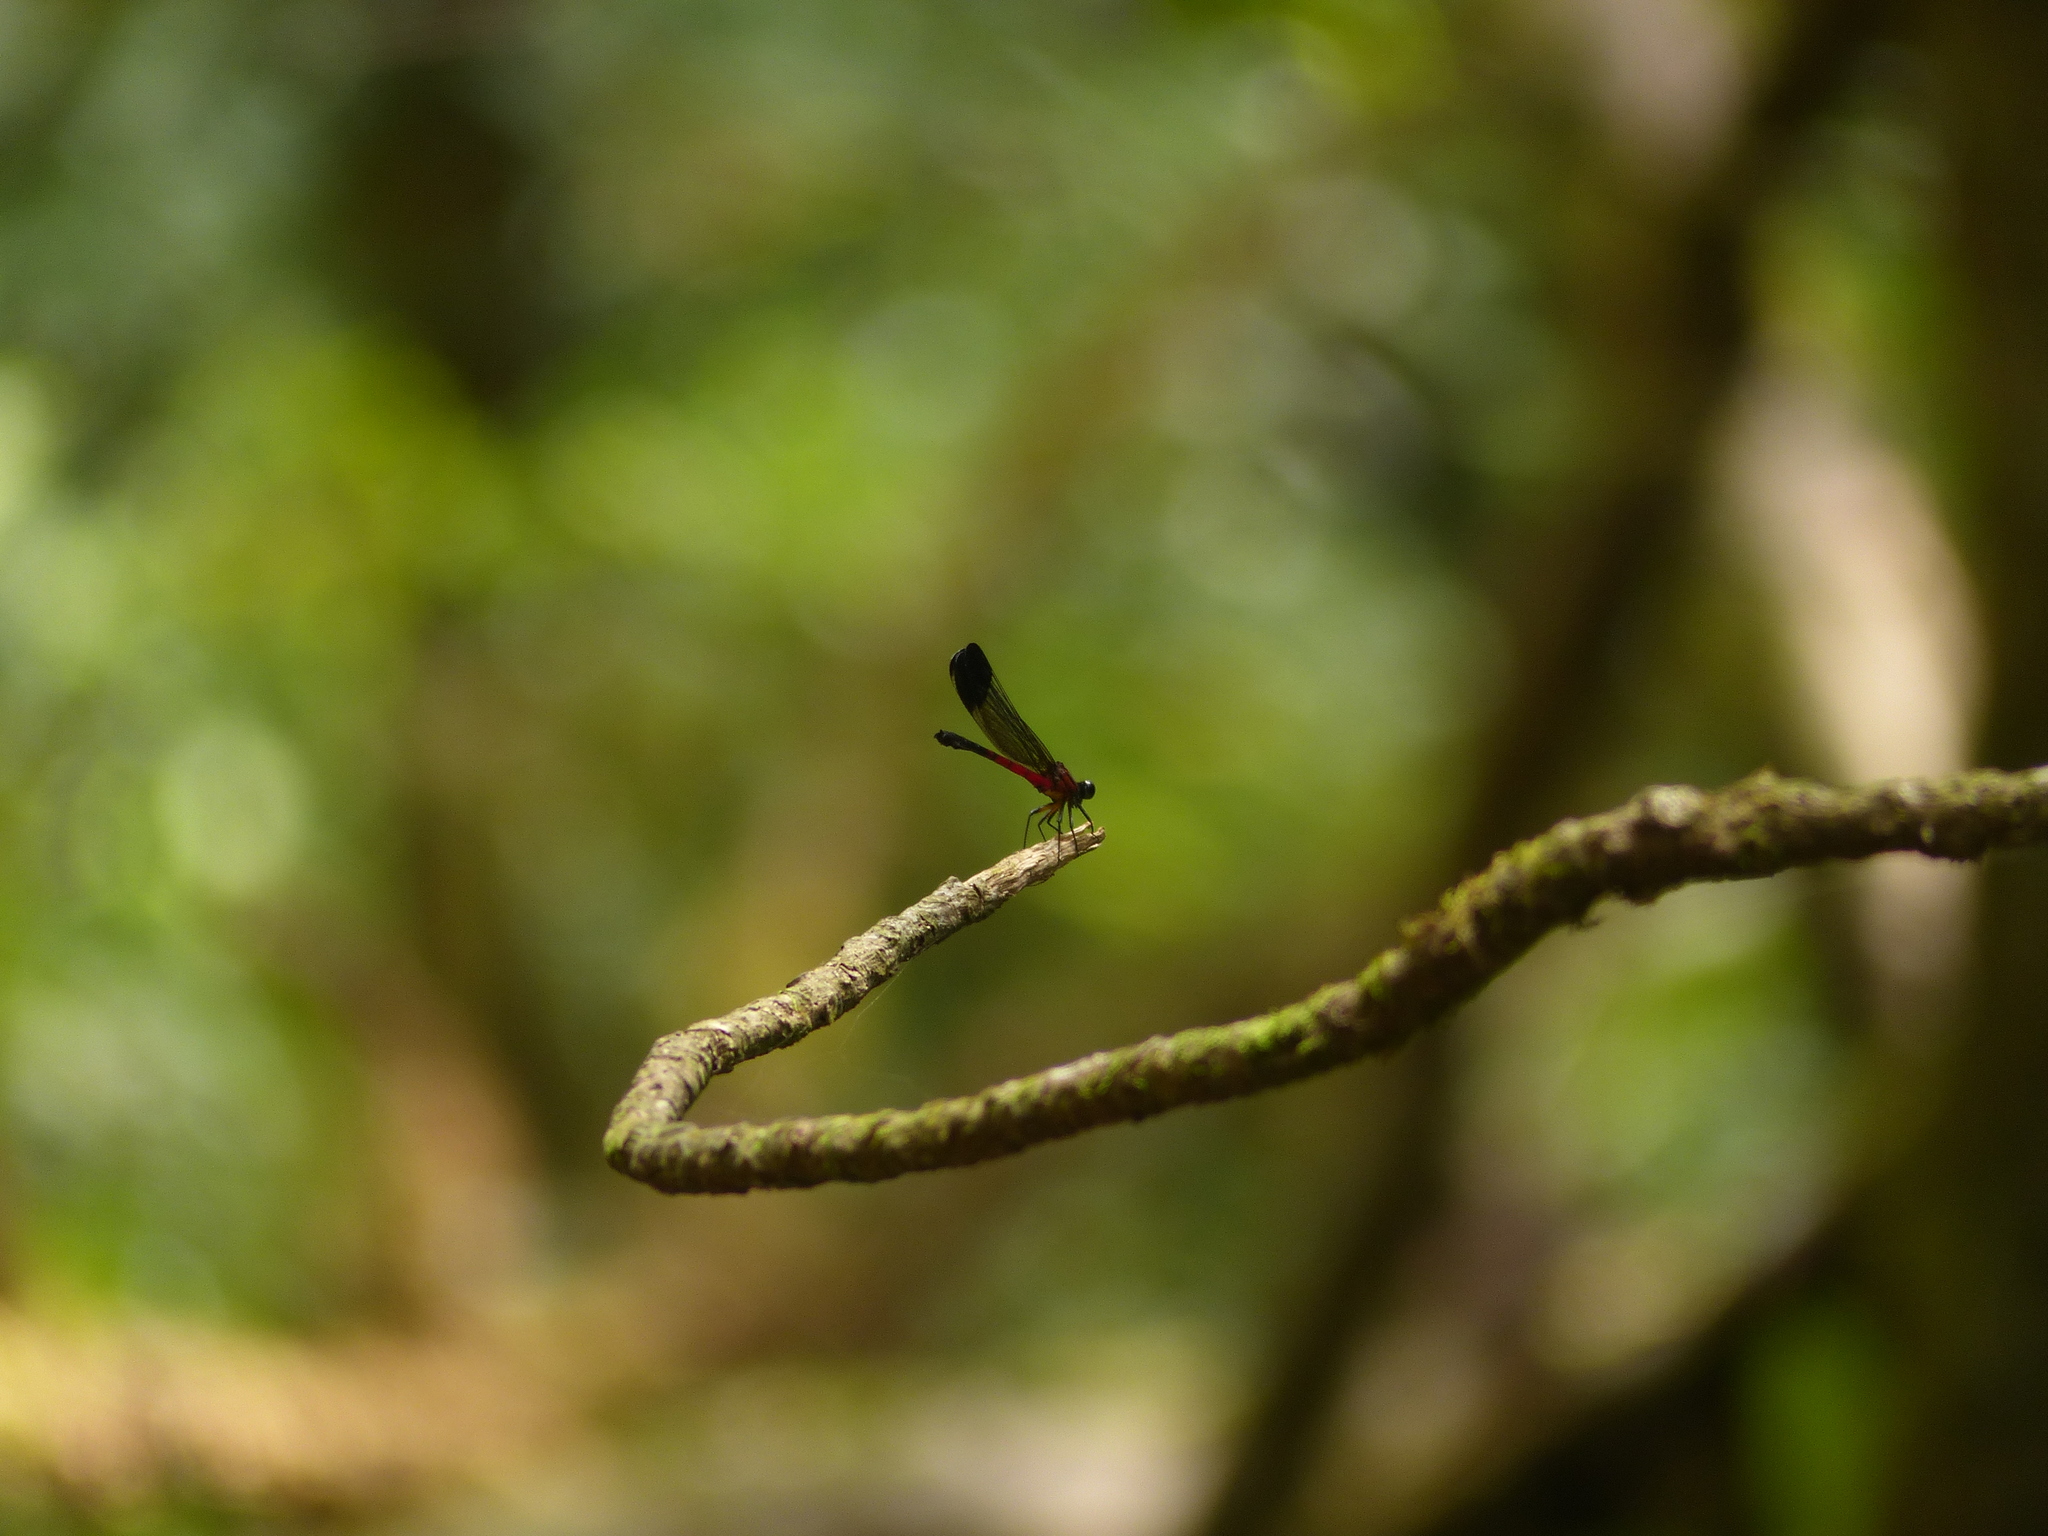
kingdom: Animalia
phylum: Arthropoda
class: Insecta
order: Odonata
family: Euphaeidae
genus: Euphaea
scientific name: Euphaea dispar
